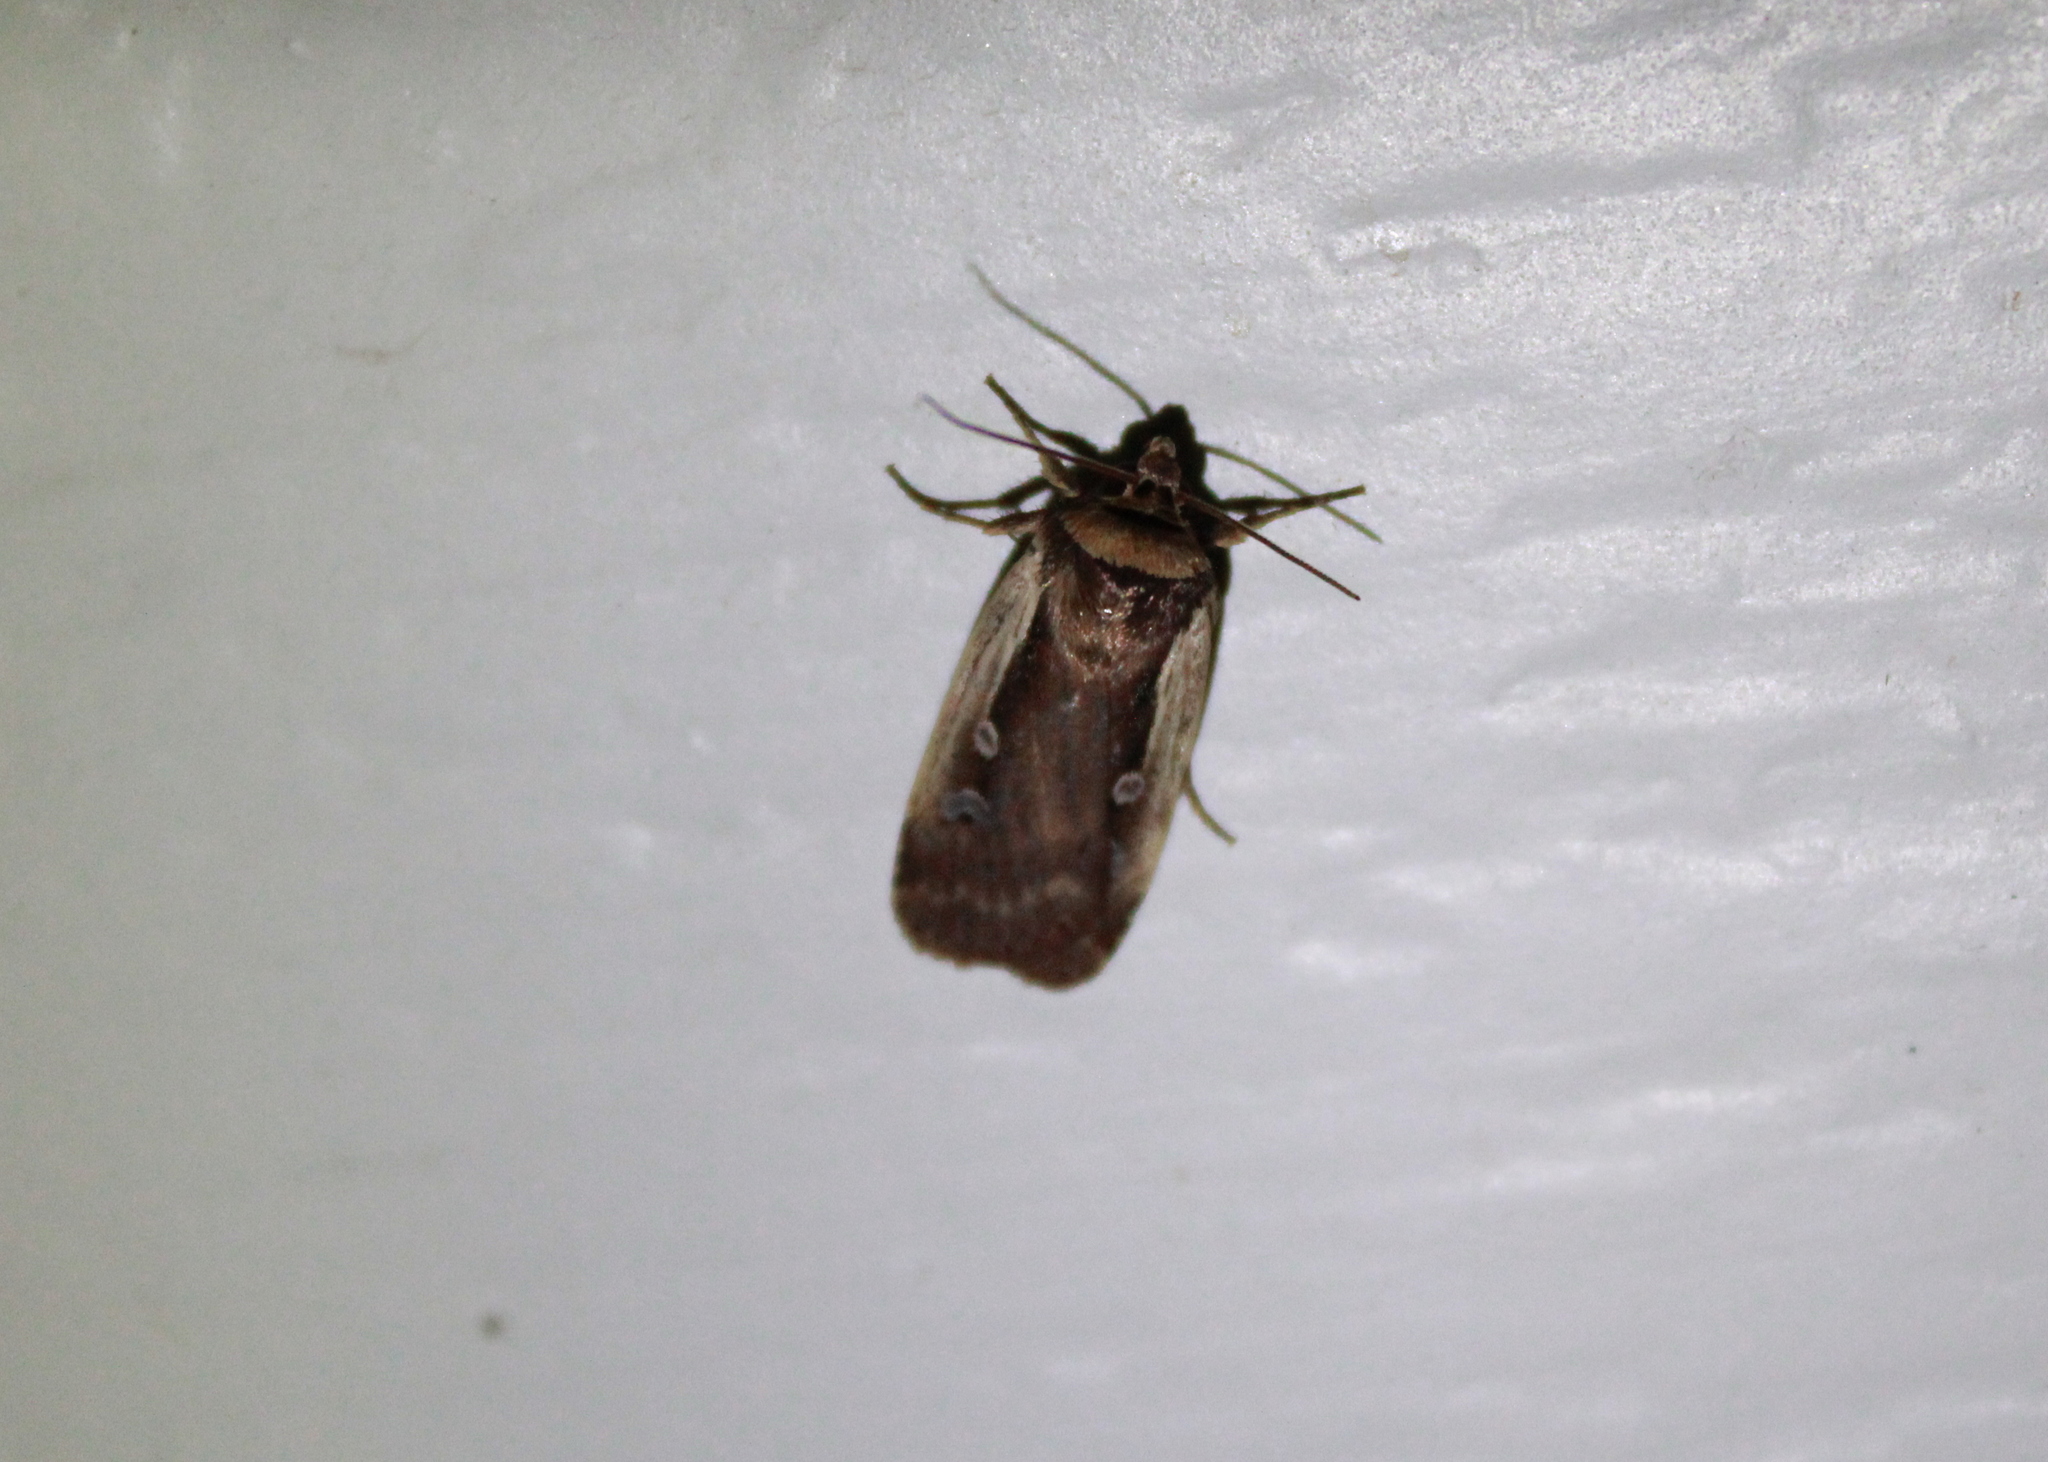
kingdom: Animalia
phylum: Arthropoda
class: Insecta
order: Lepidoptera
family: Noctuidae
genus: Ochropleura
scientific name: Ochropleura implecta
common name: Flame-shouldered dart
